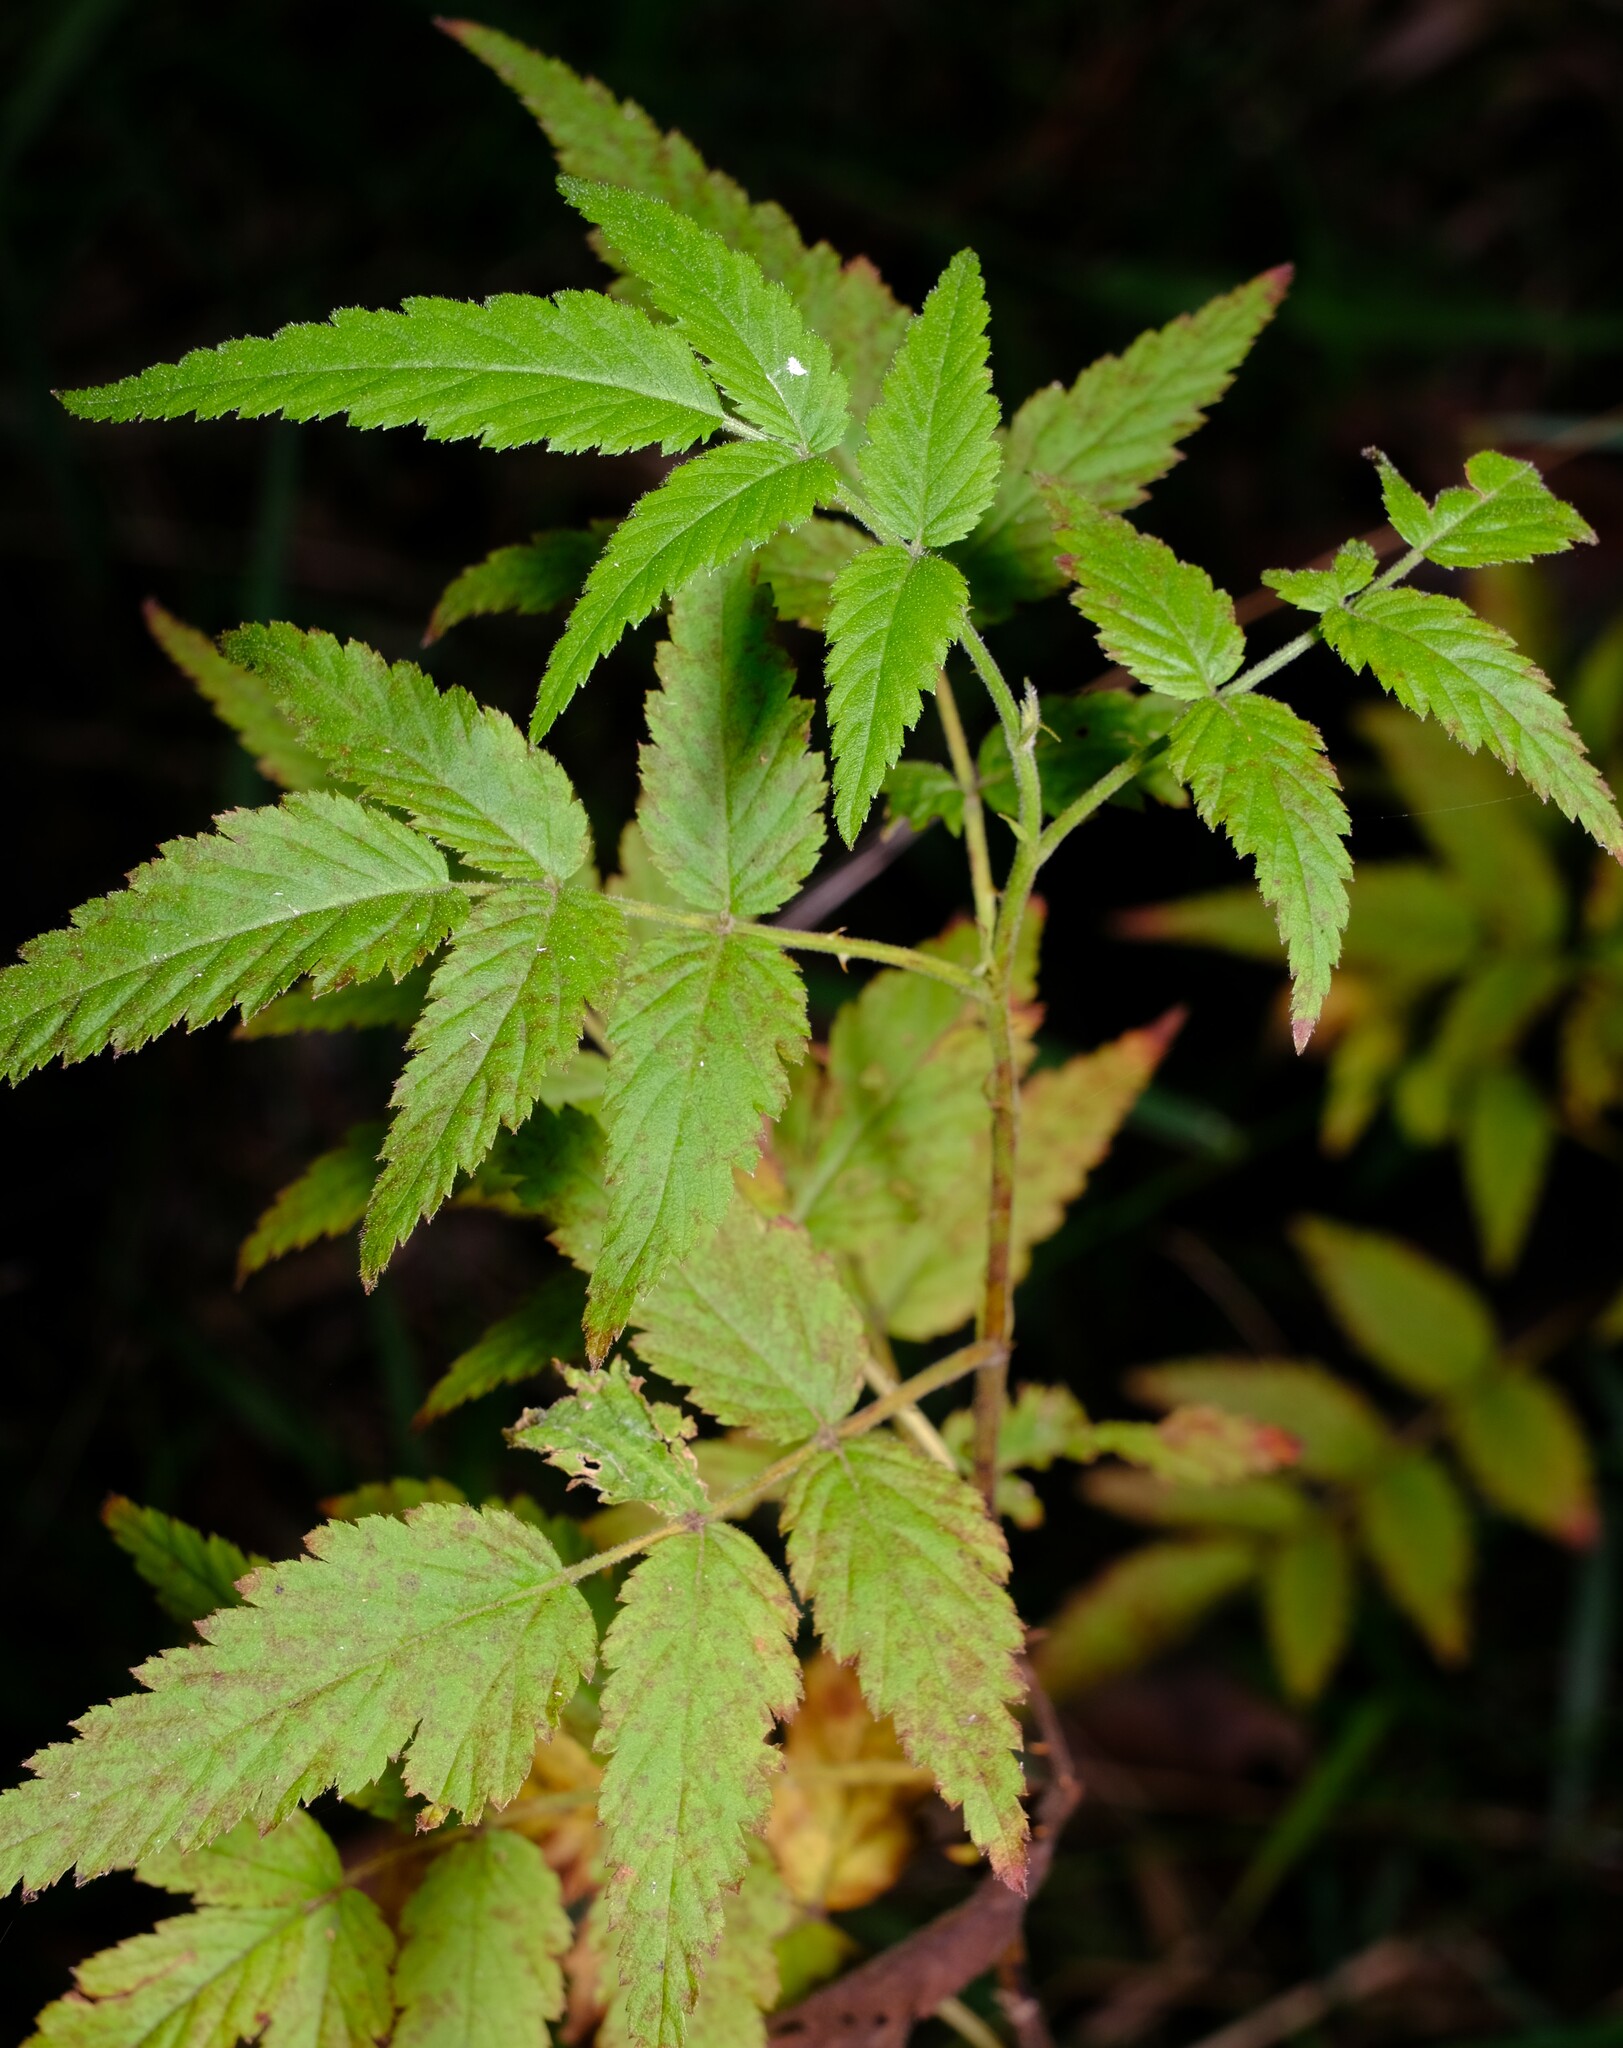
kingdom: Plantae
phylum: Tracheophyta
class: Magnoliopsida
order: Rosales
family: Rosaceae
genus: Rubus
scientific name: Rubus rosifolius
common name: Roseleaf raspberry
